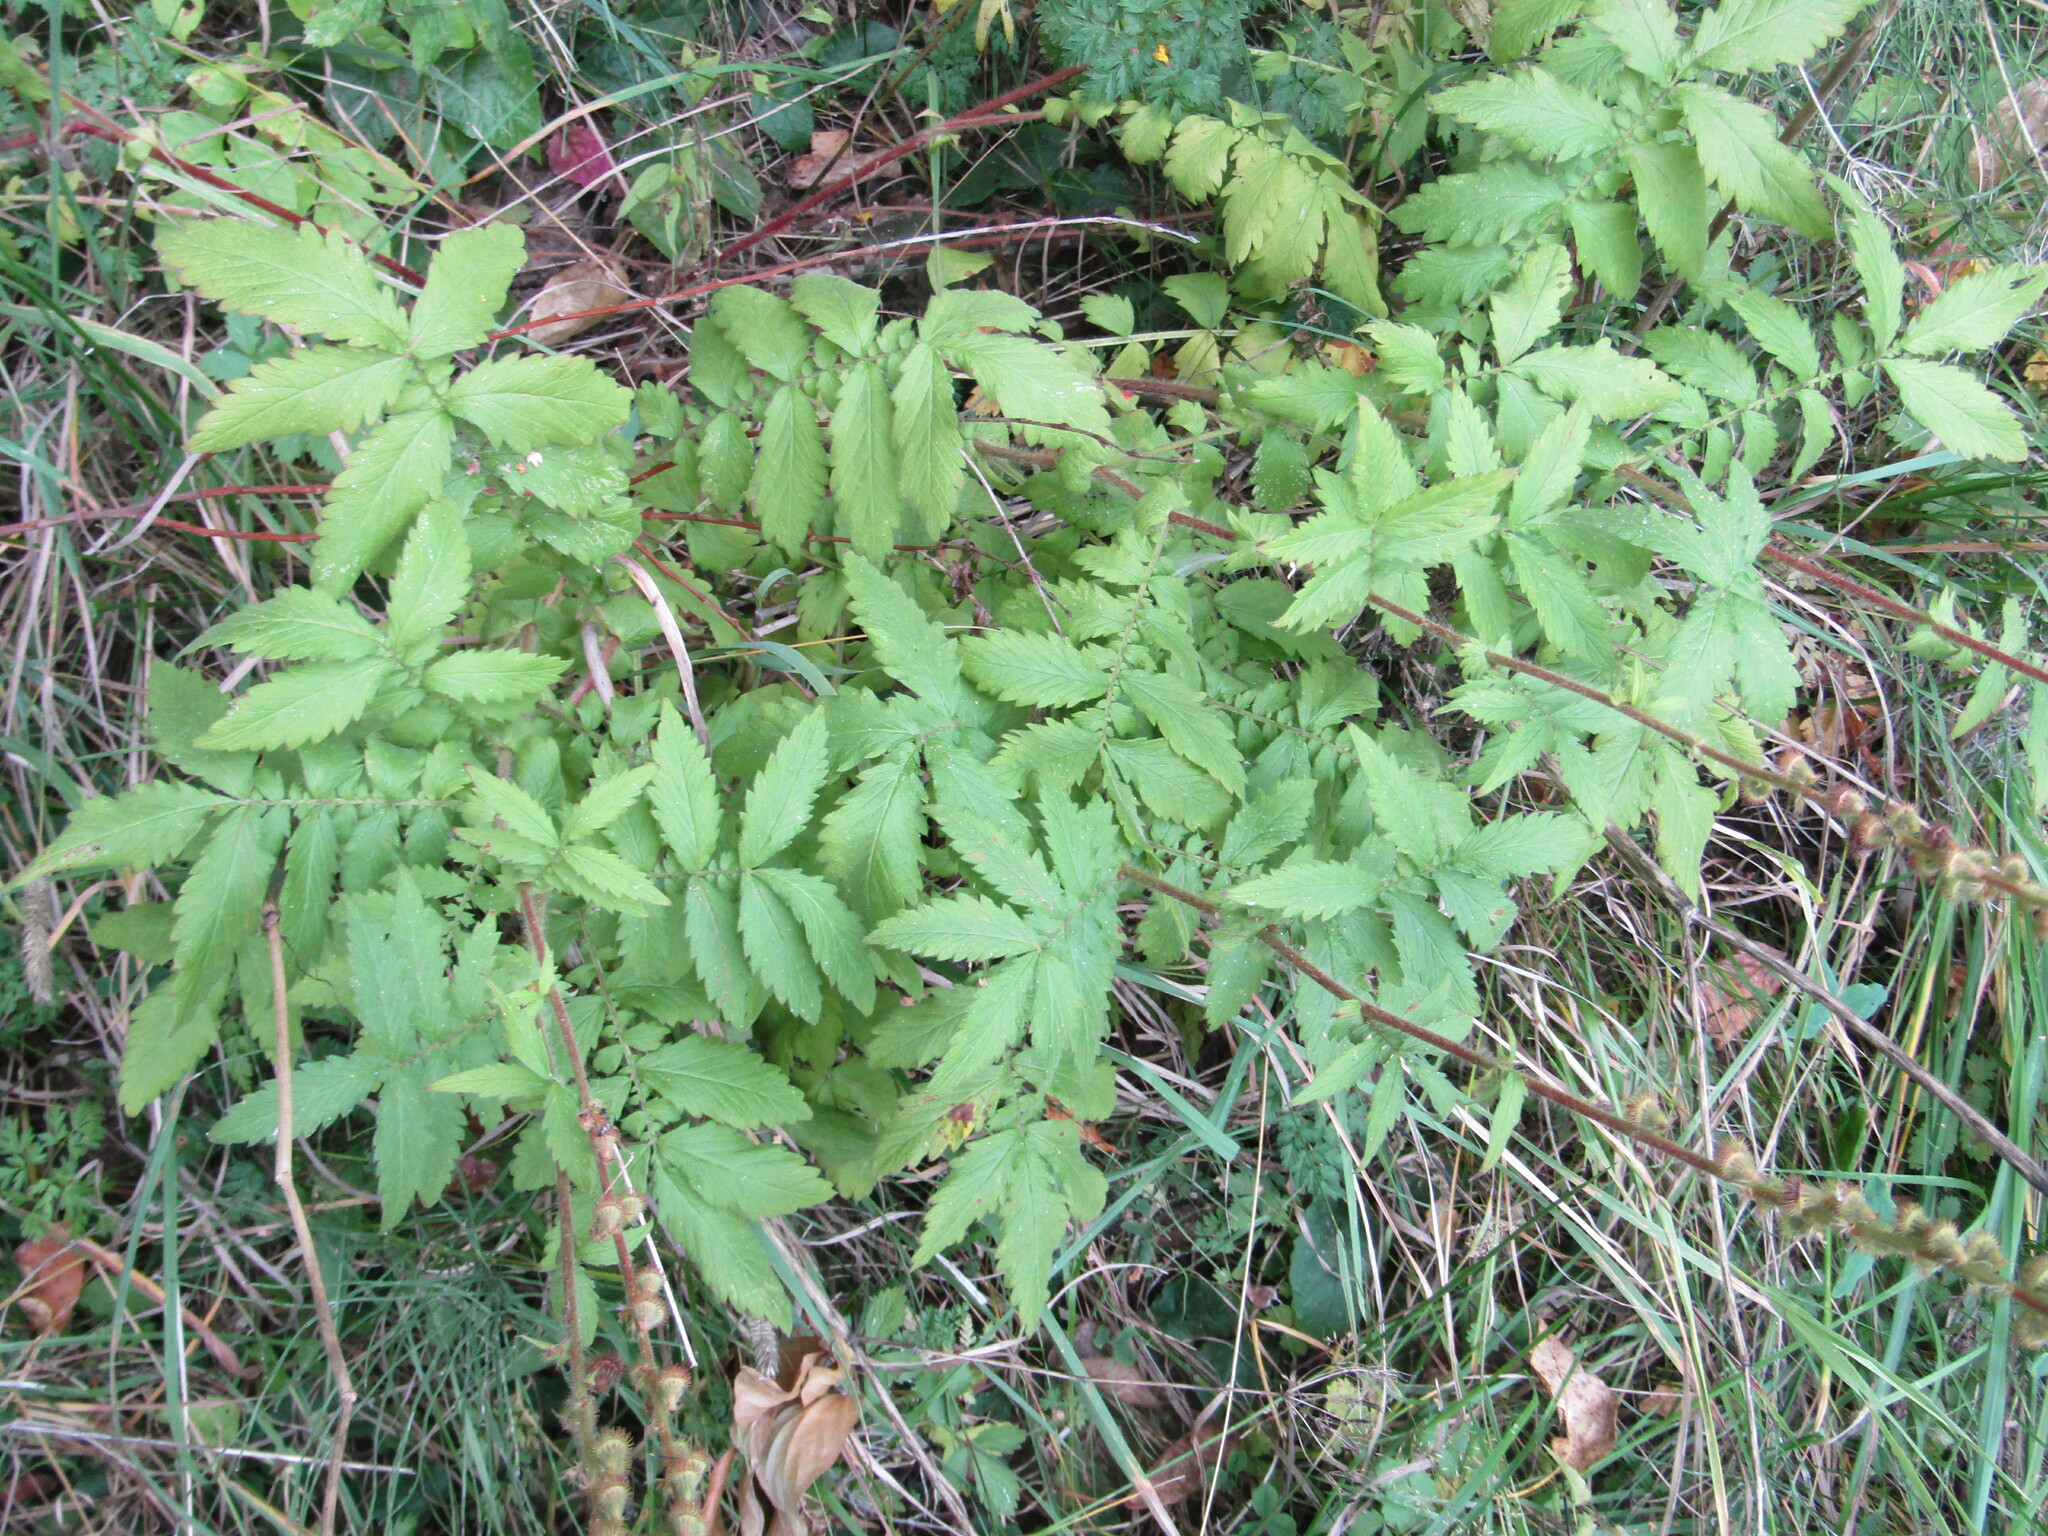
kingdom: Plantae
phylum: Tracheophyta
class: Magnoliopsida
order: Rosales
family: Rosaceae
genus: Agrimonia
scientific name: Agrimonia eupatoria
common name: Agrimony
